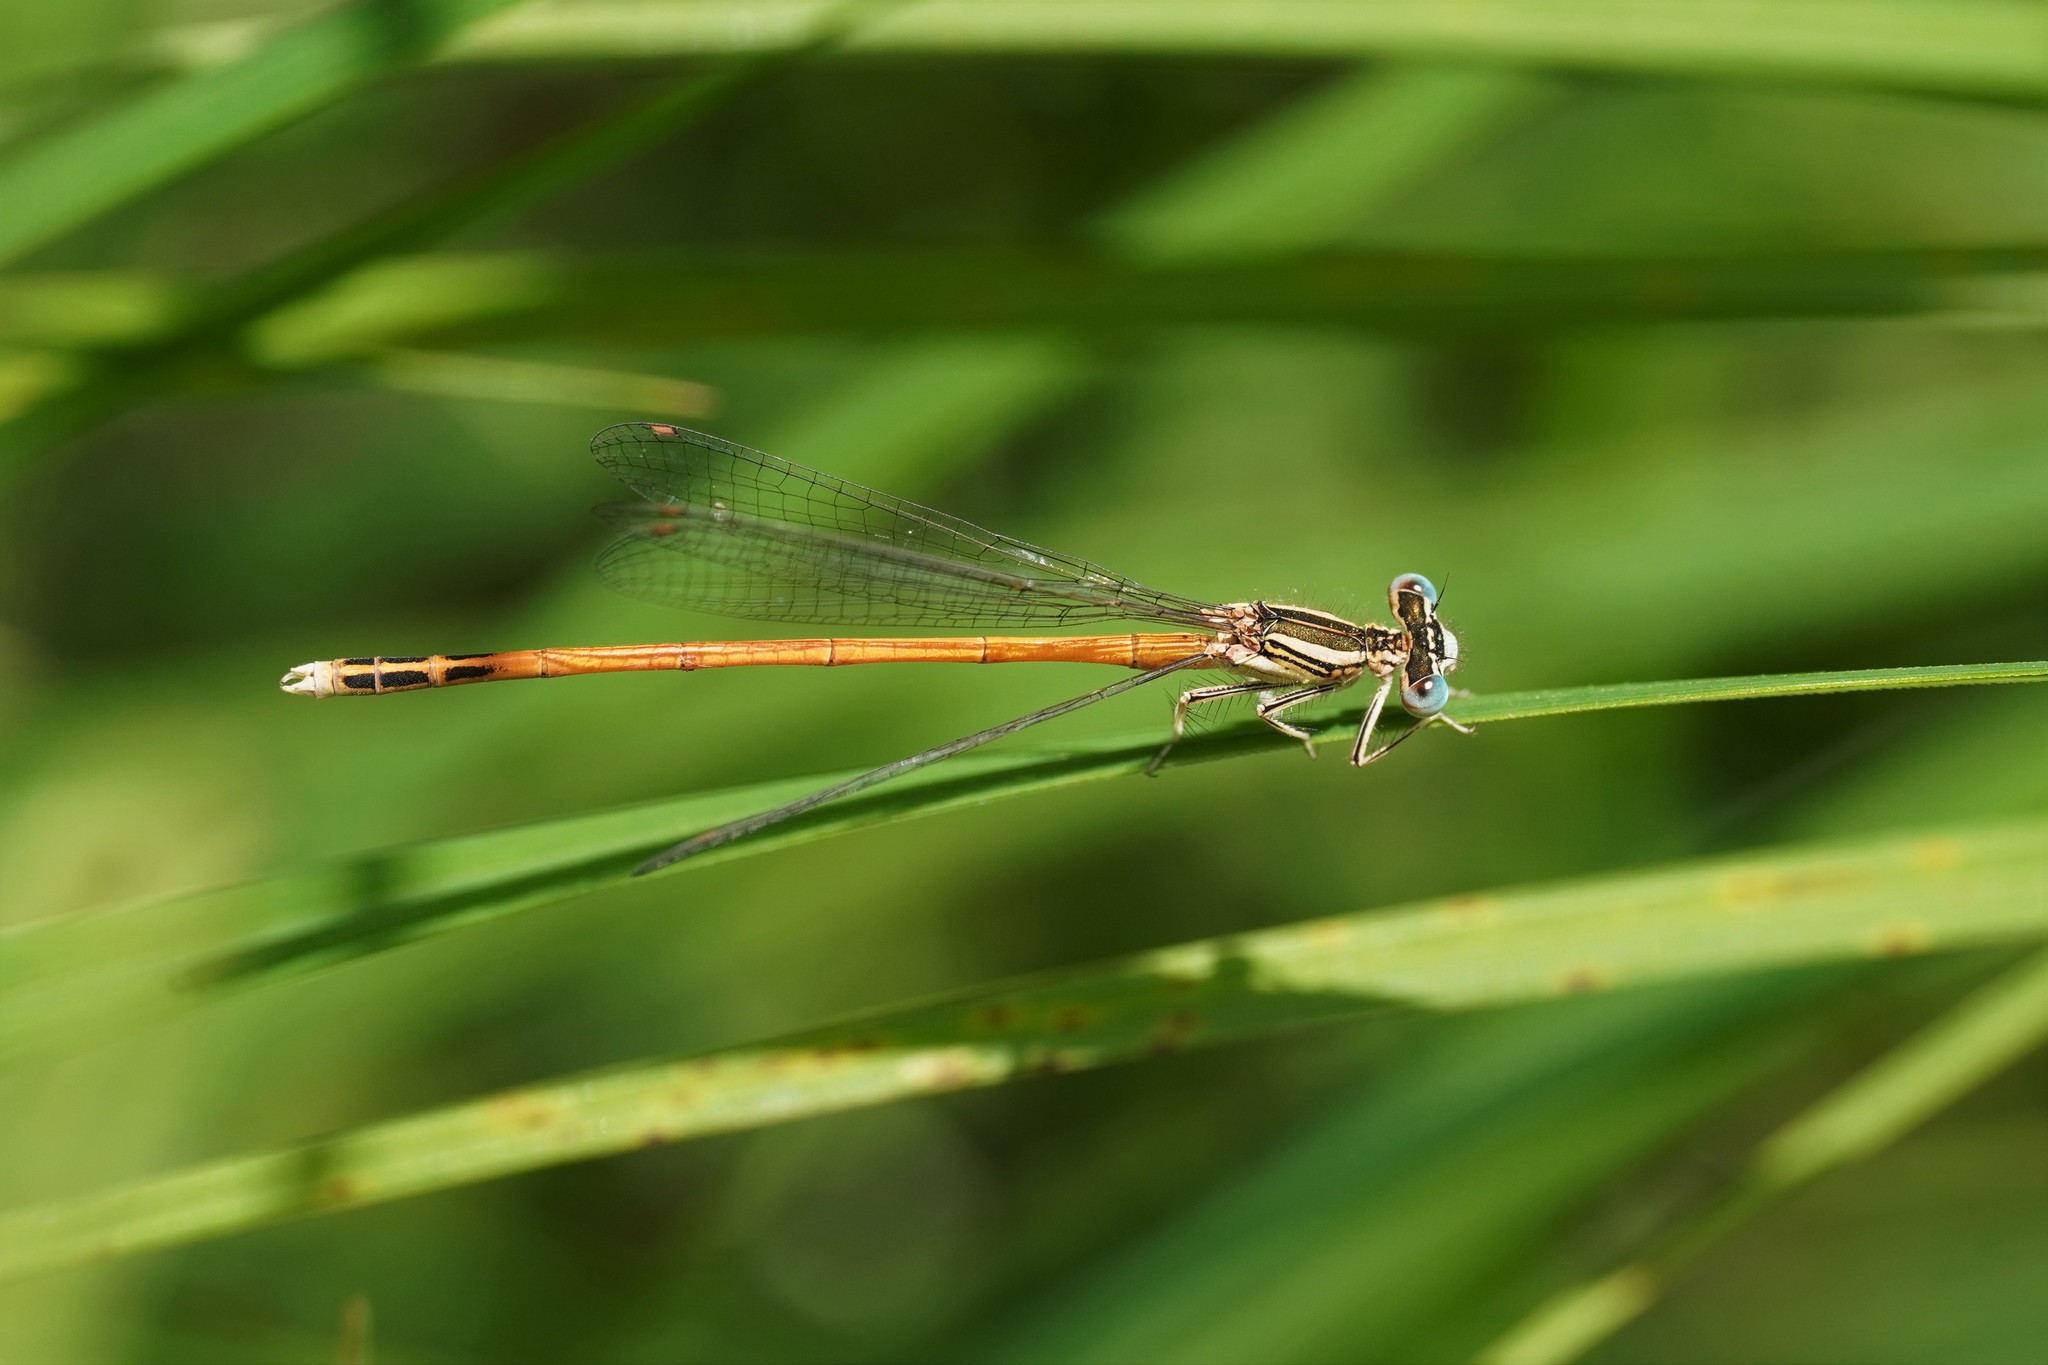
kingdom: Animalia
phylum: Arthropoda
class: Insecta
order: Odonata
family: Platycnemididae
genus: Platycnemis
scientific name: Platycnemis acutipennis
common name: Orange featherleg
